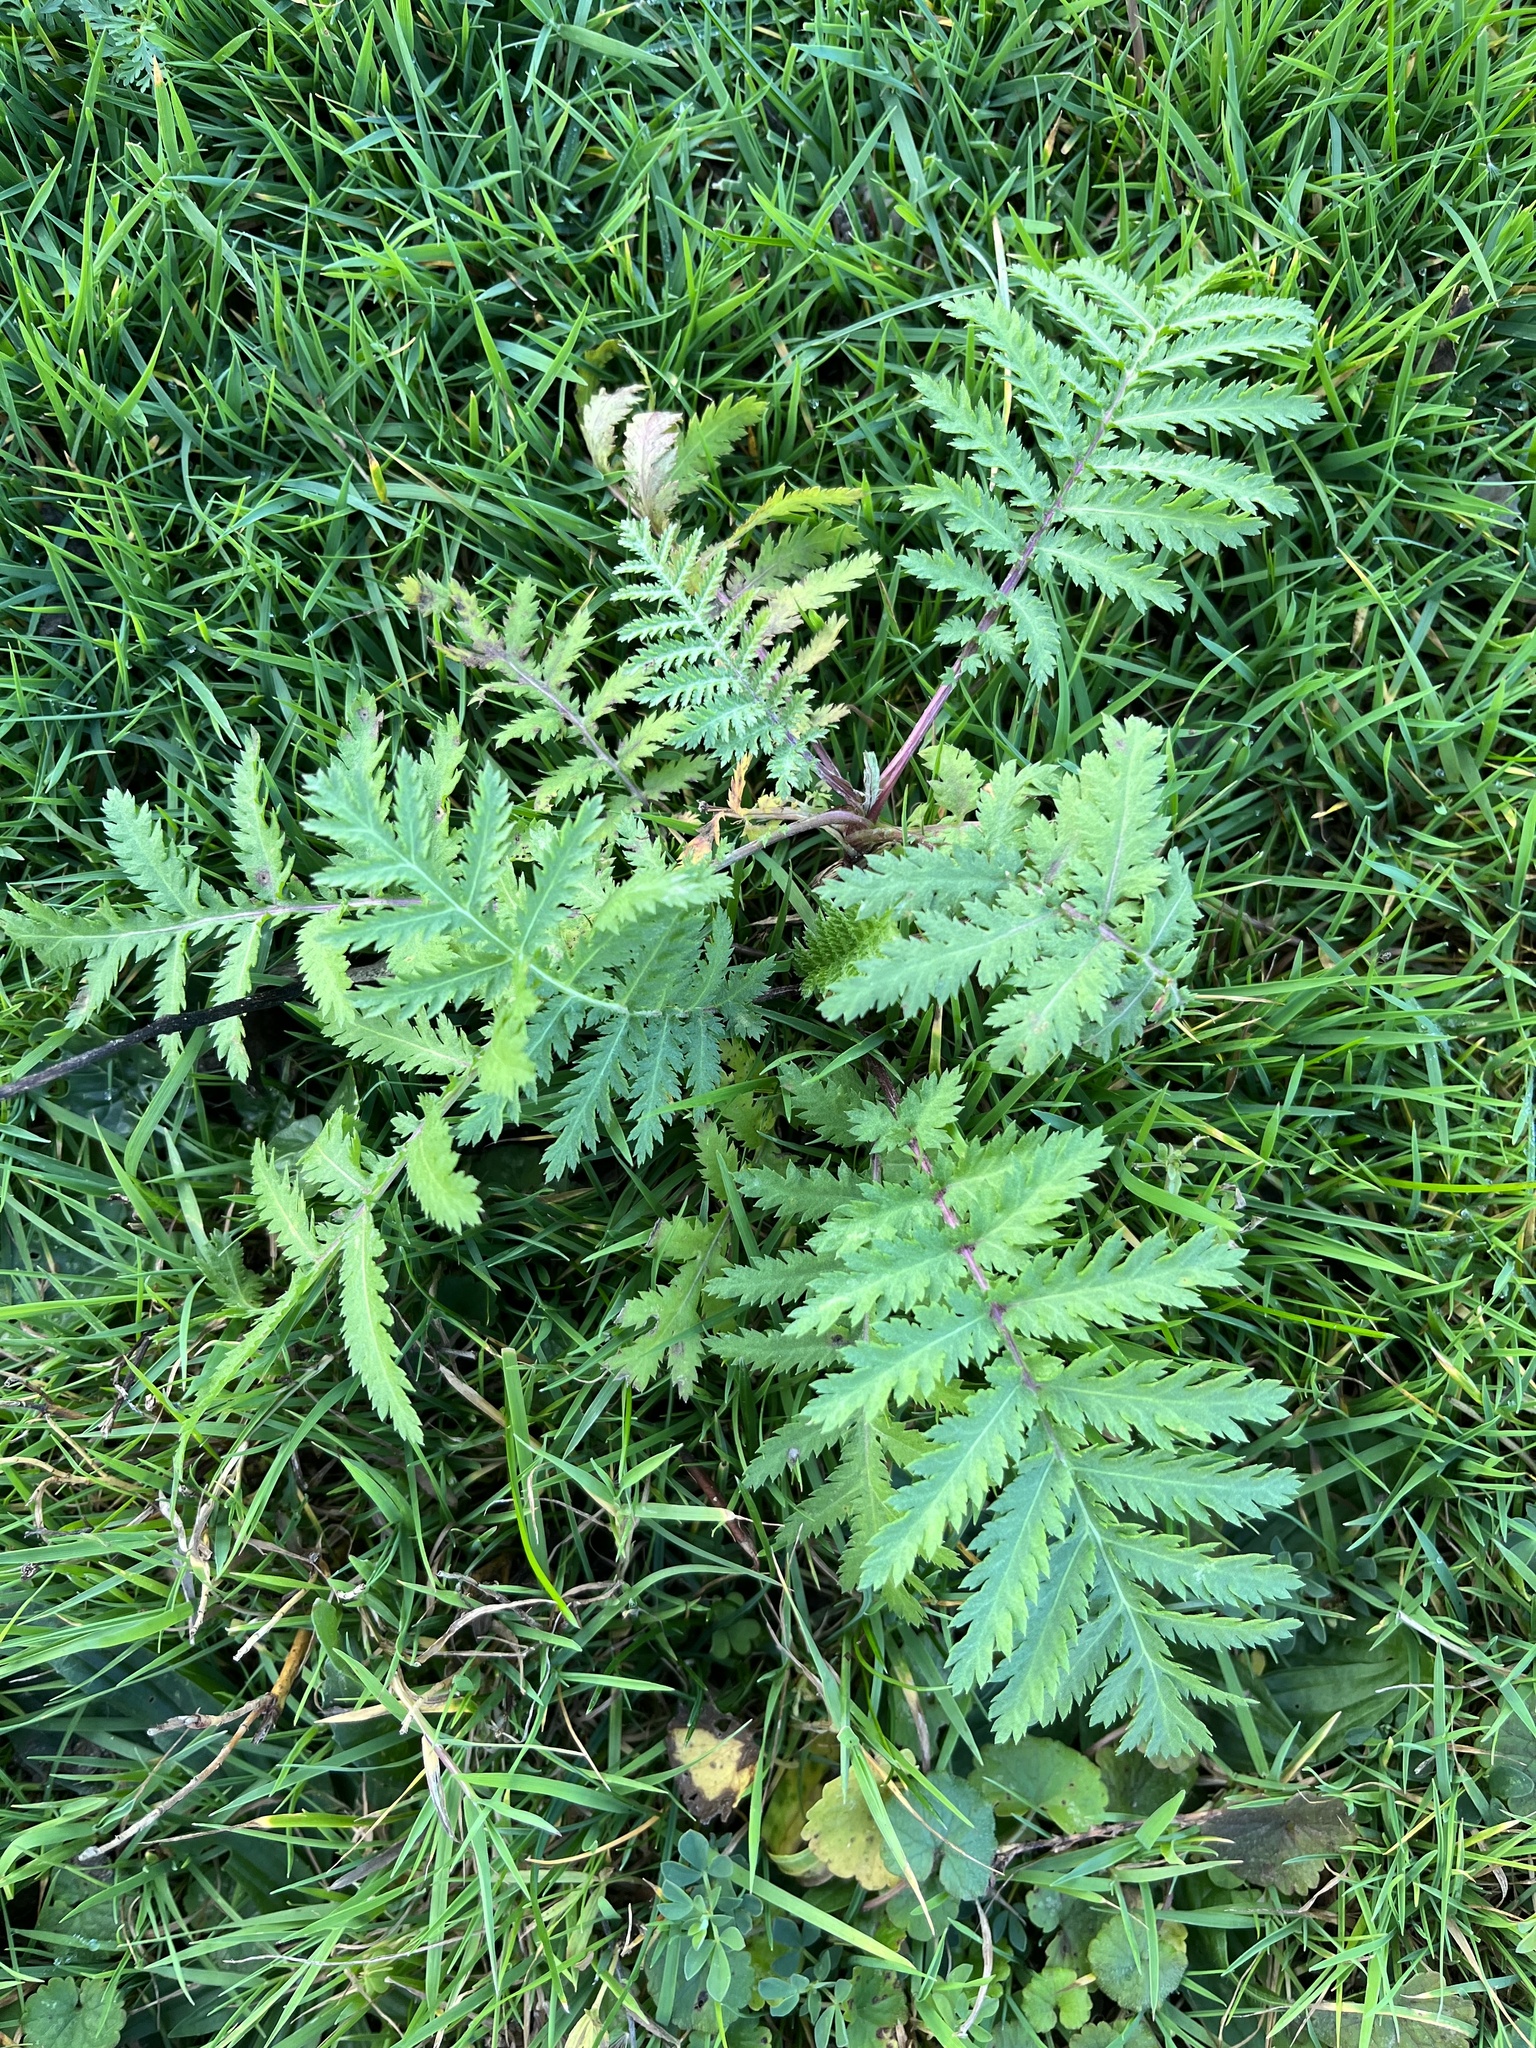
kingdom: Plantae
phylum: Tracheophyta
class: Magnoliopsida
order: Asterales
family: Asteraceae
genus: Tanacetum
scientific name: Tanacetum vulgare
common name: Common tansy
